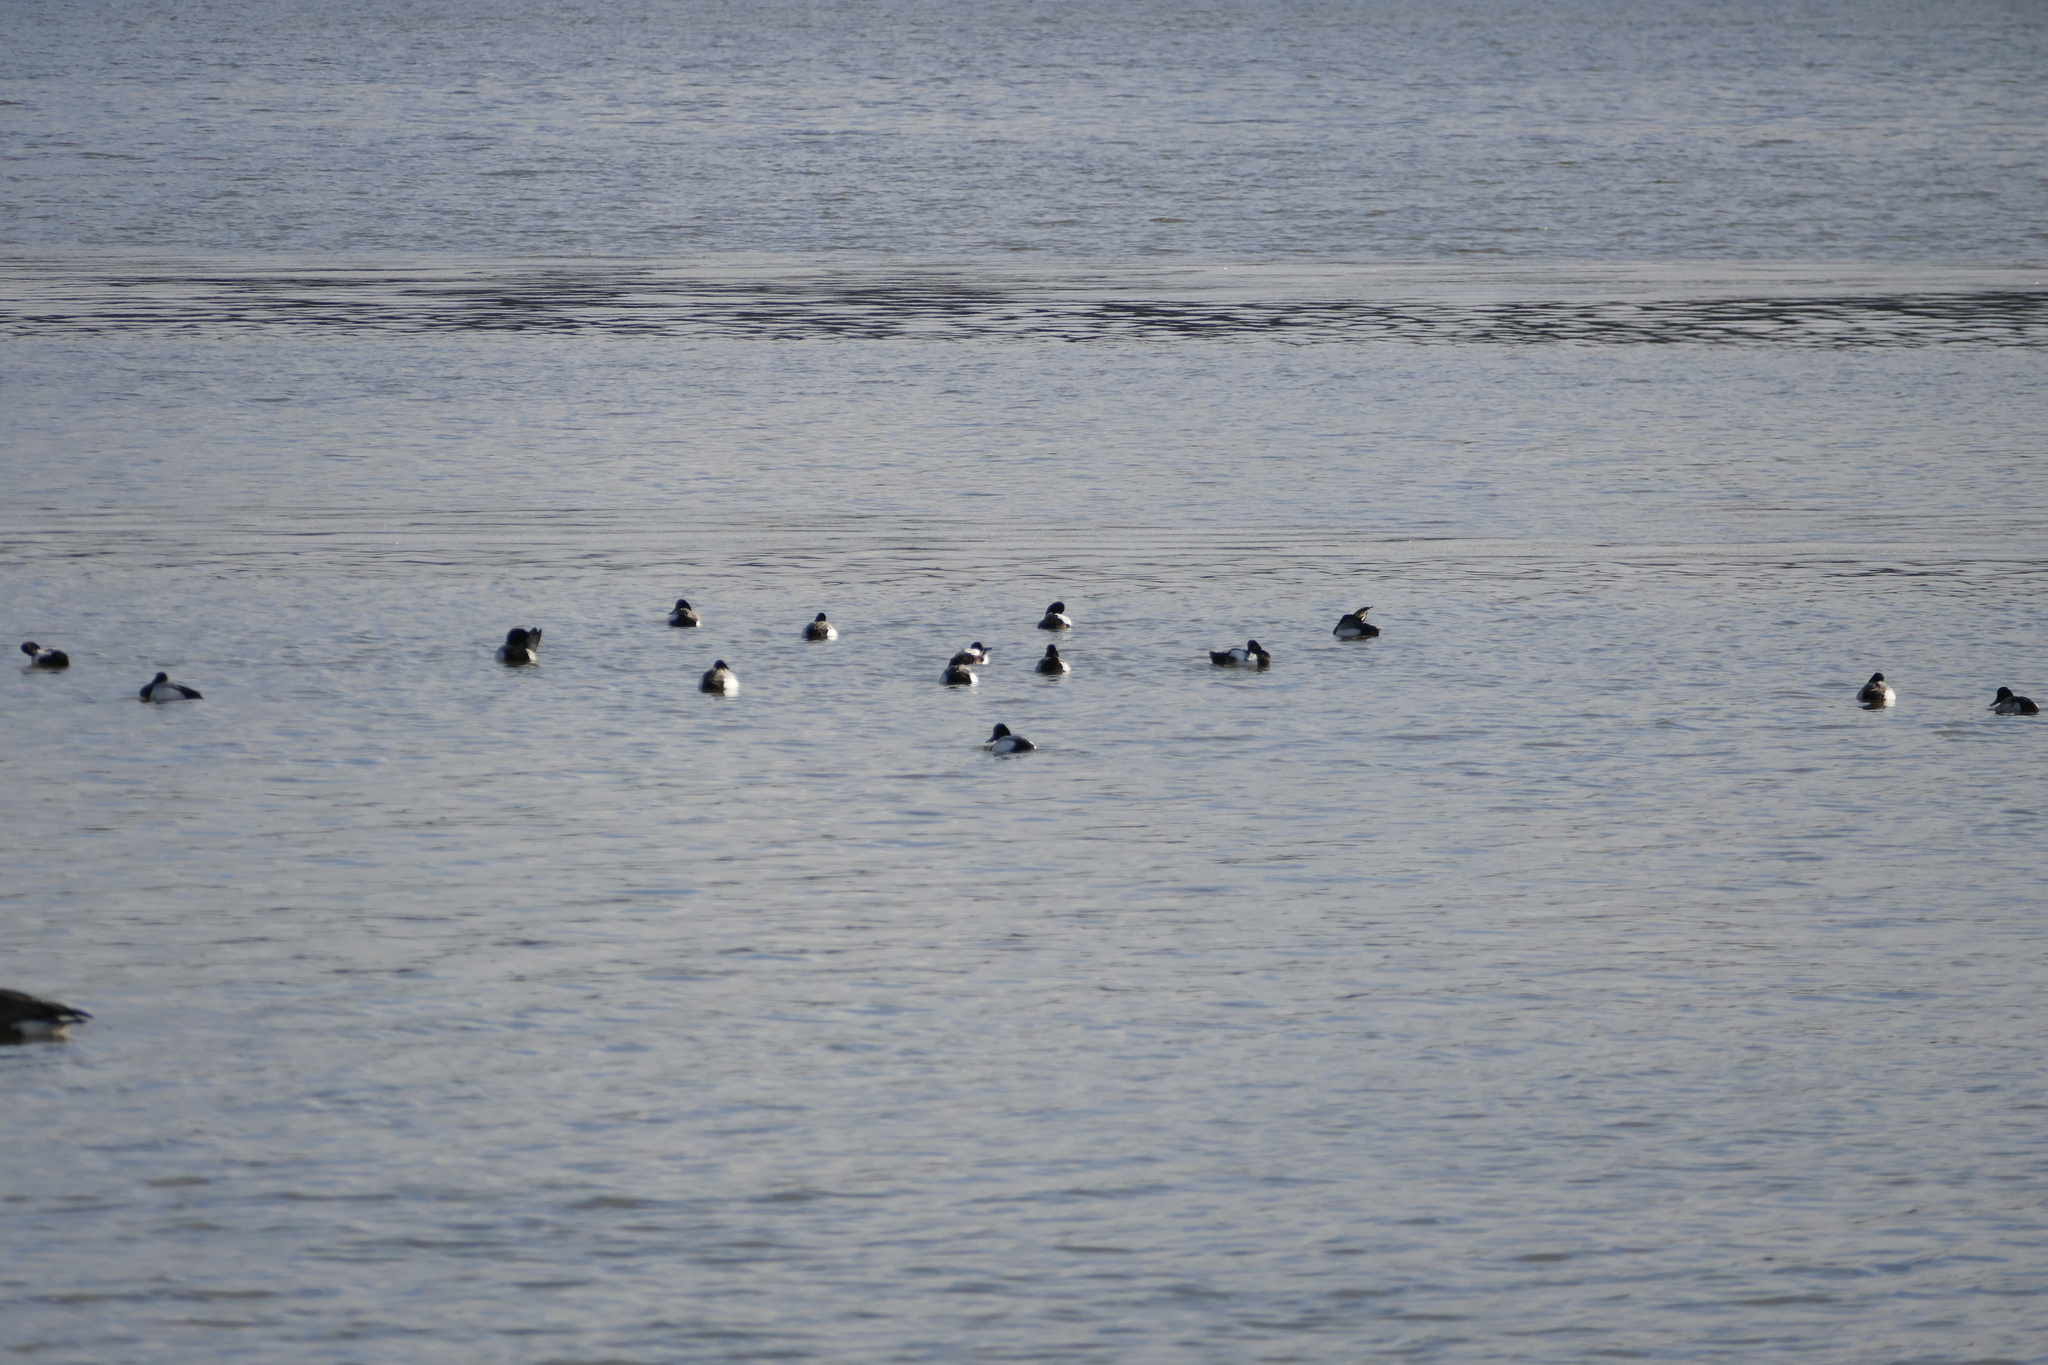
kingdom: Animalia
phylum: Chordata
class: Aves
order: Anseriformes
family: Anatidae
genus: Aythya
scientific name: Aythya affinis
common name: Lesser scaup
